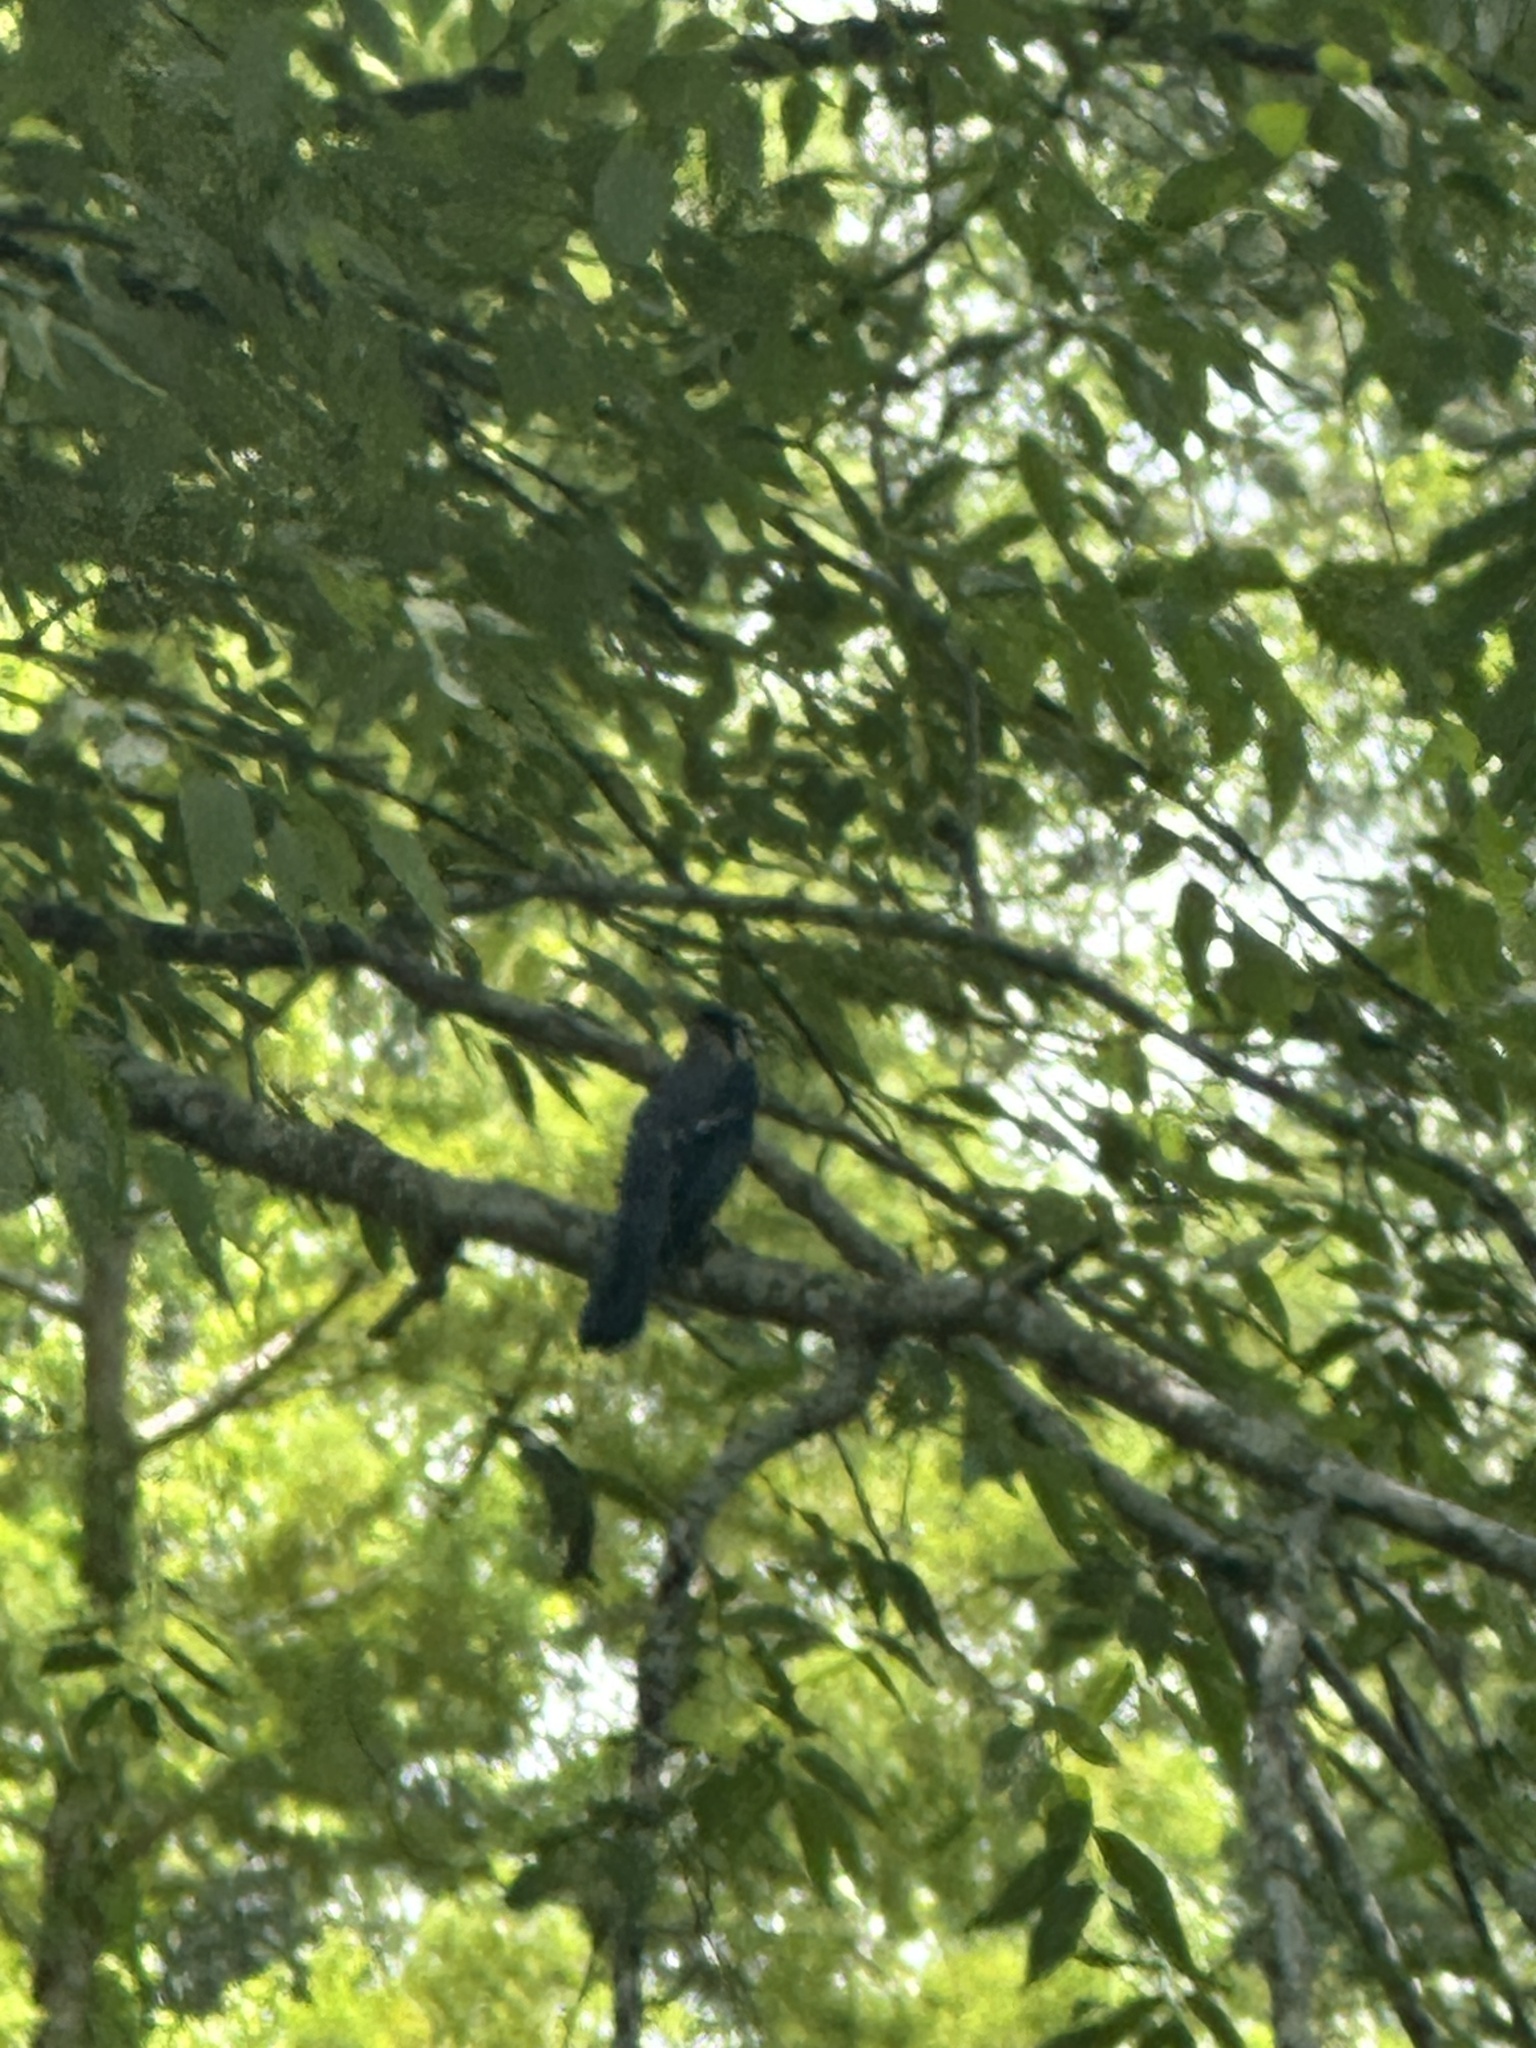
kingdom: Animalia
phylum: Chordata
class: Aves
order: Passeriformes
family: Corvidae
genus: Cyanocitta
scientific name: Cyanocitta cristata
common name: Blue jay
